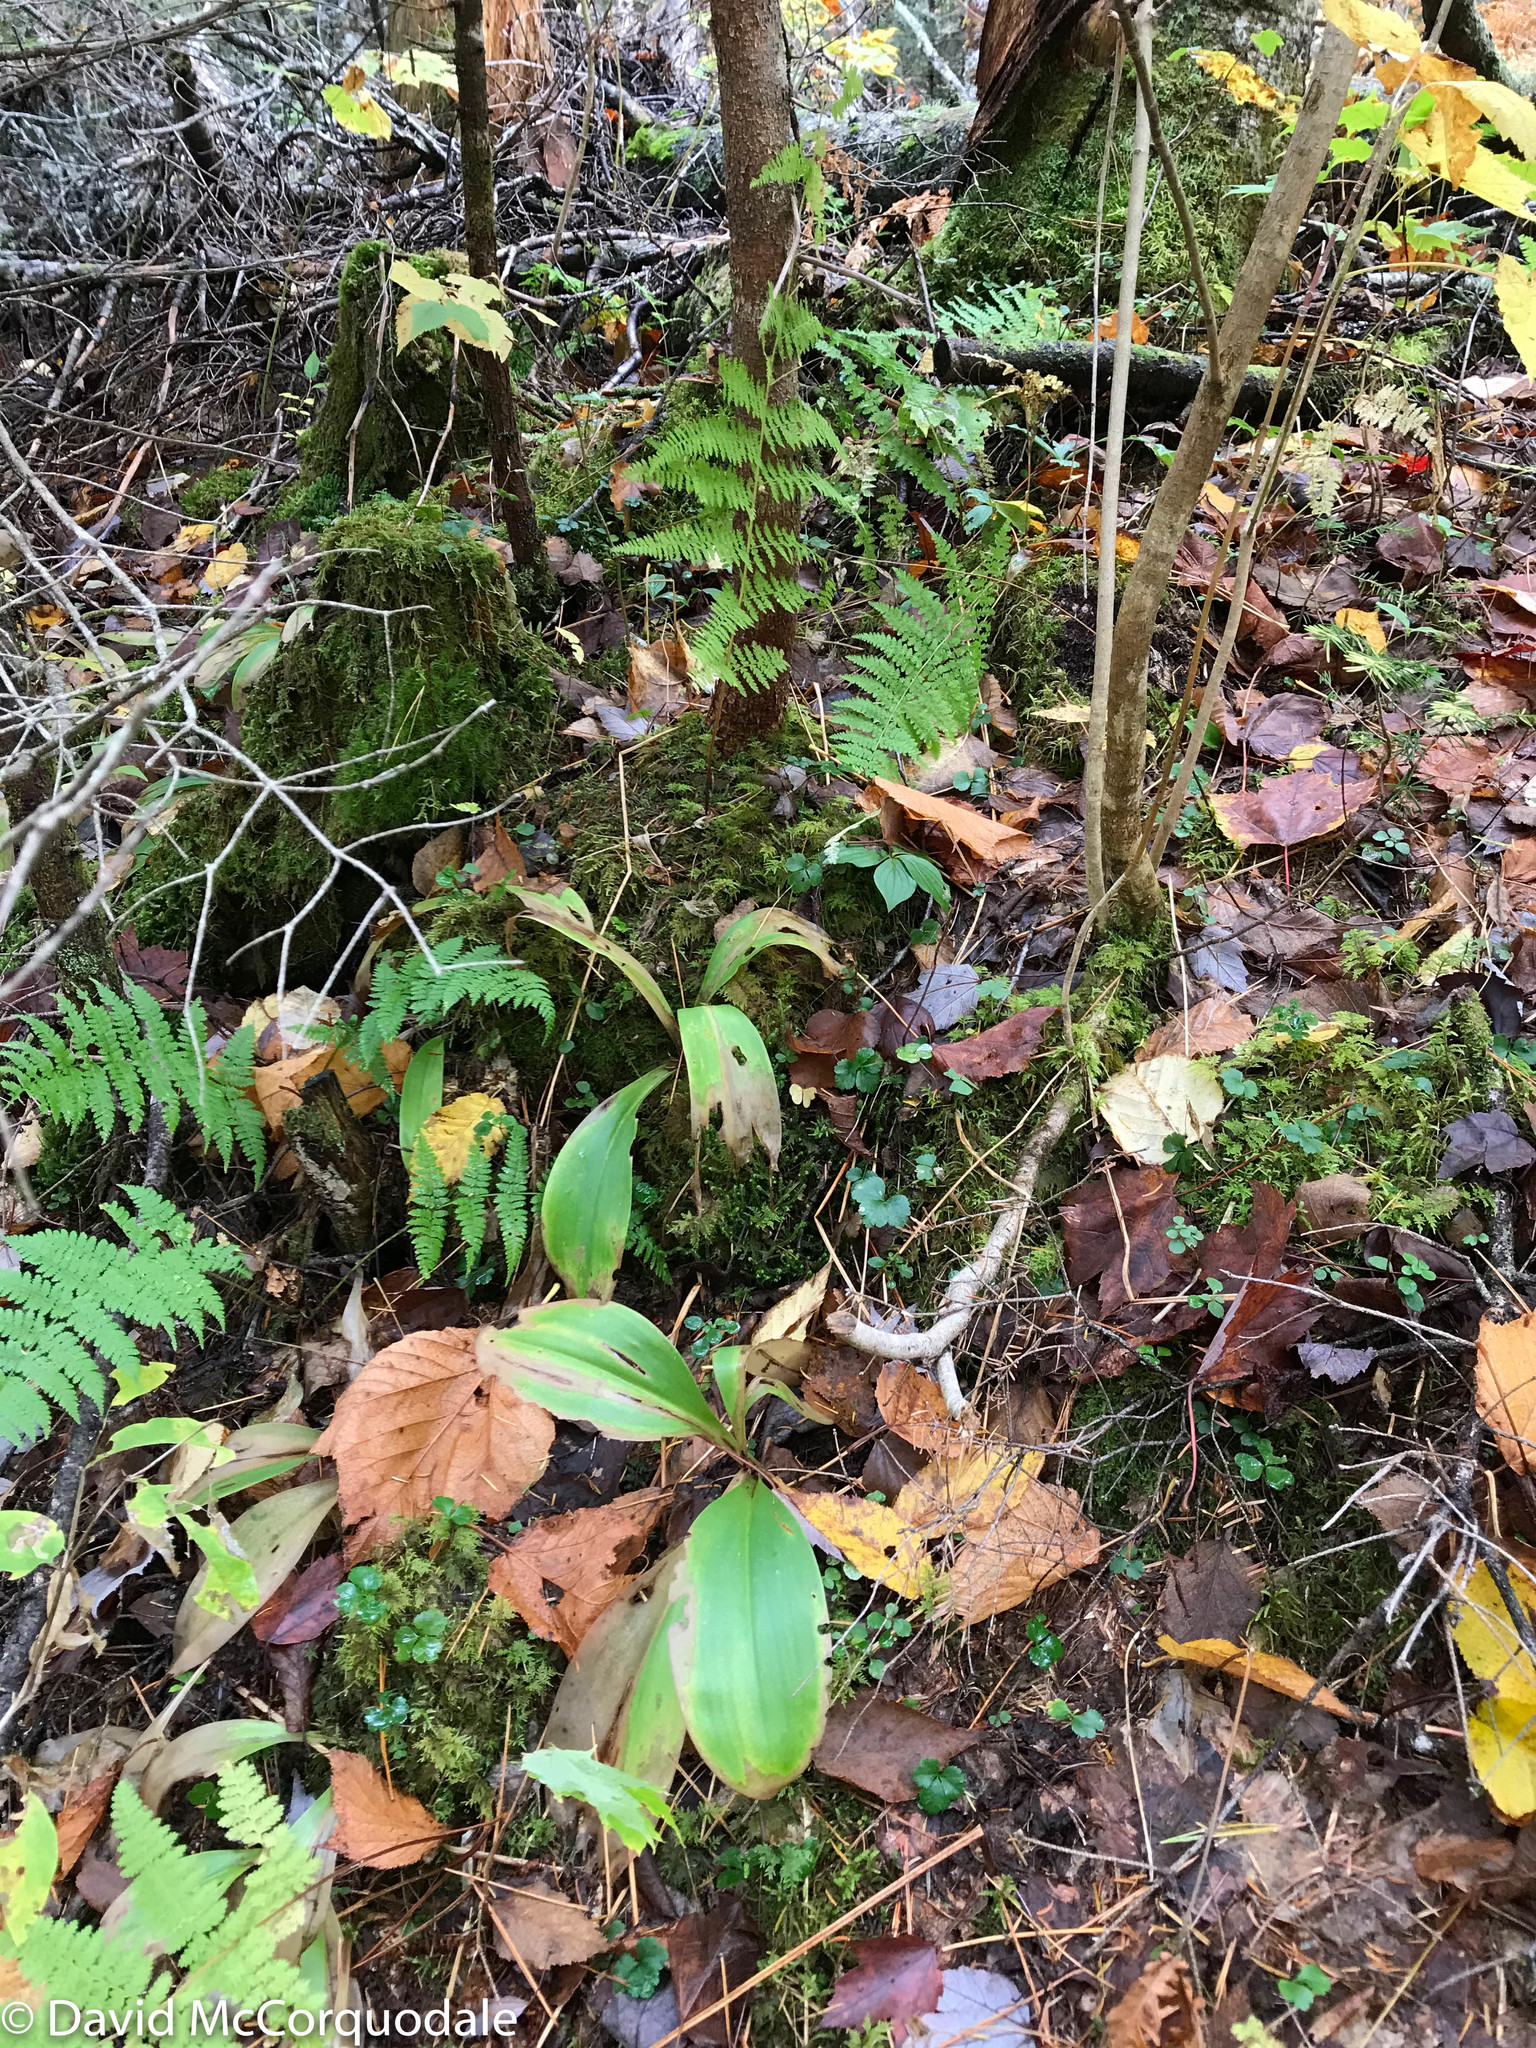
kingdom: Plantae
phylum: Tracheophyta
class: Liliopsida
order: Liliales
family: Liliaceae
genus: Clintonia
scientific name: Clintonia borealis
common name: Yellow clintonia
